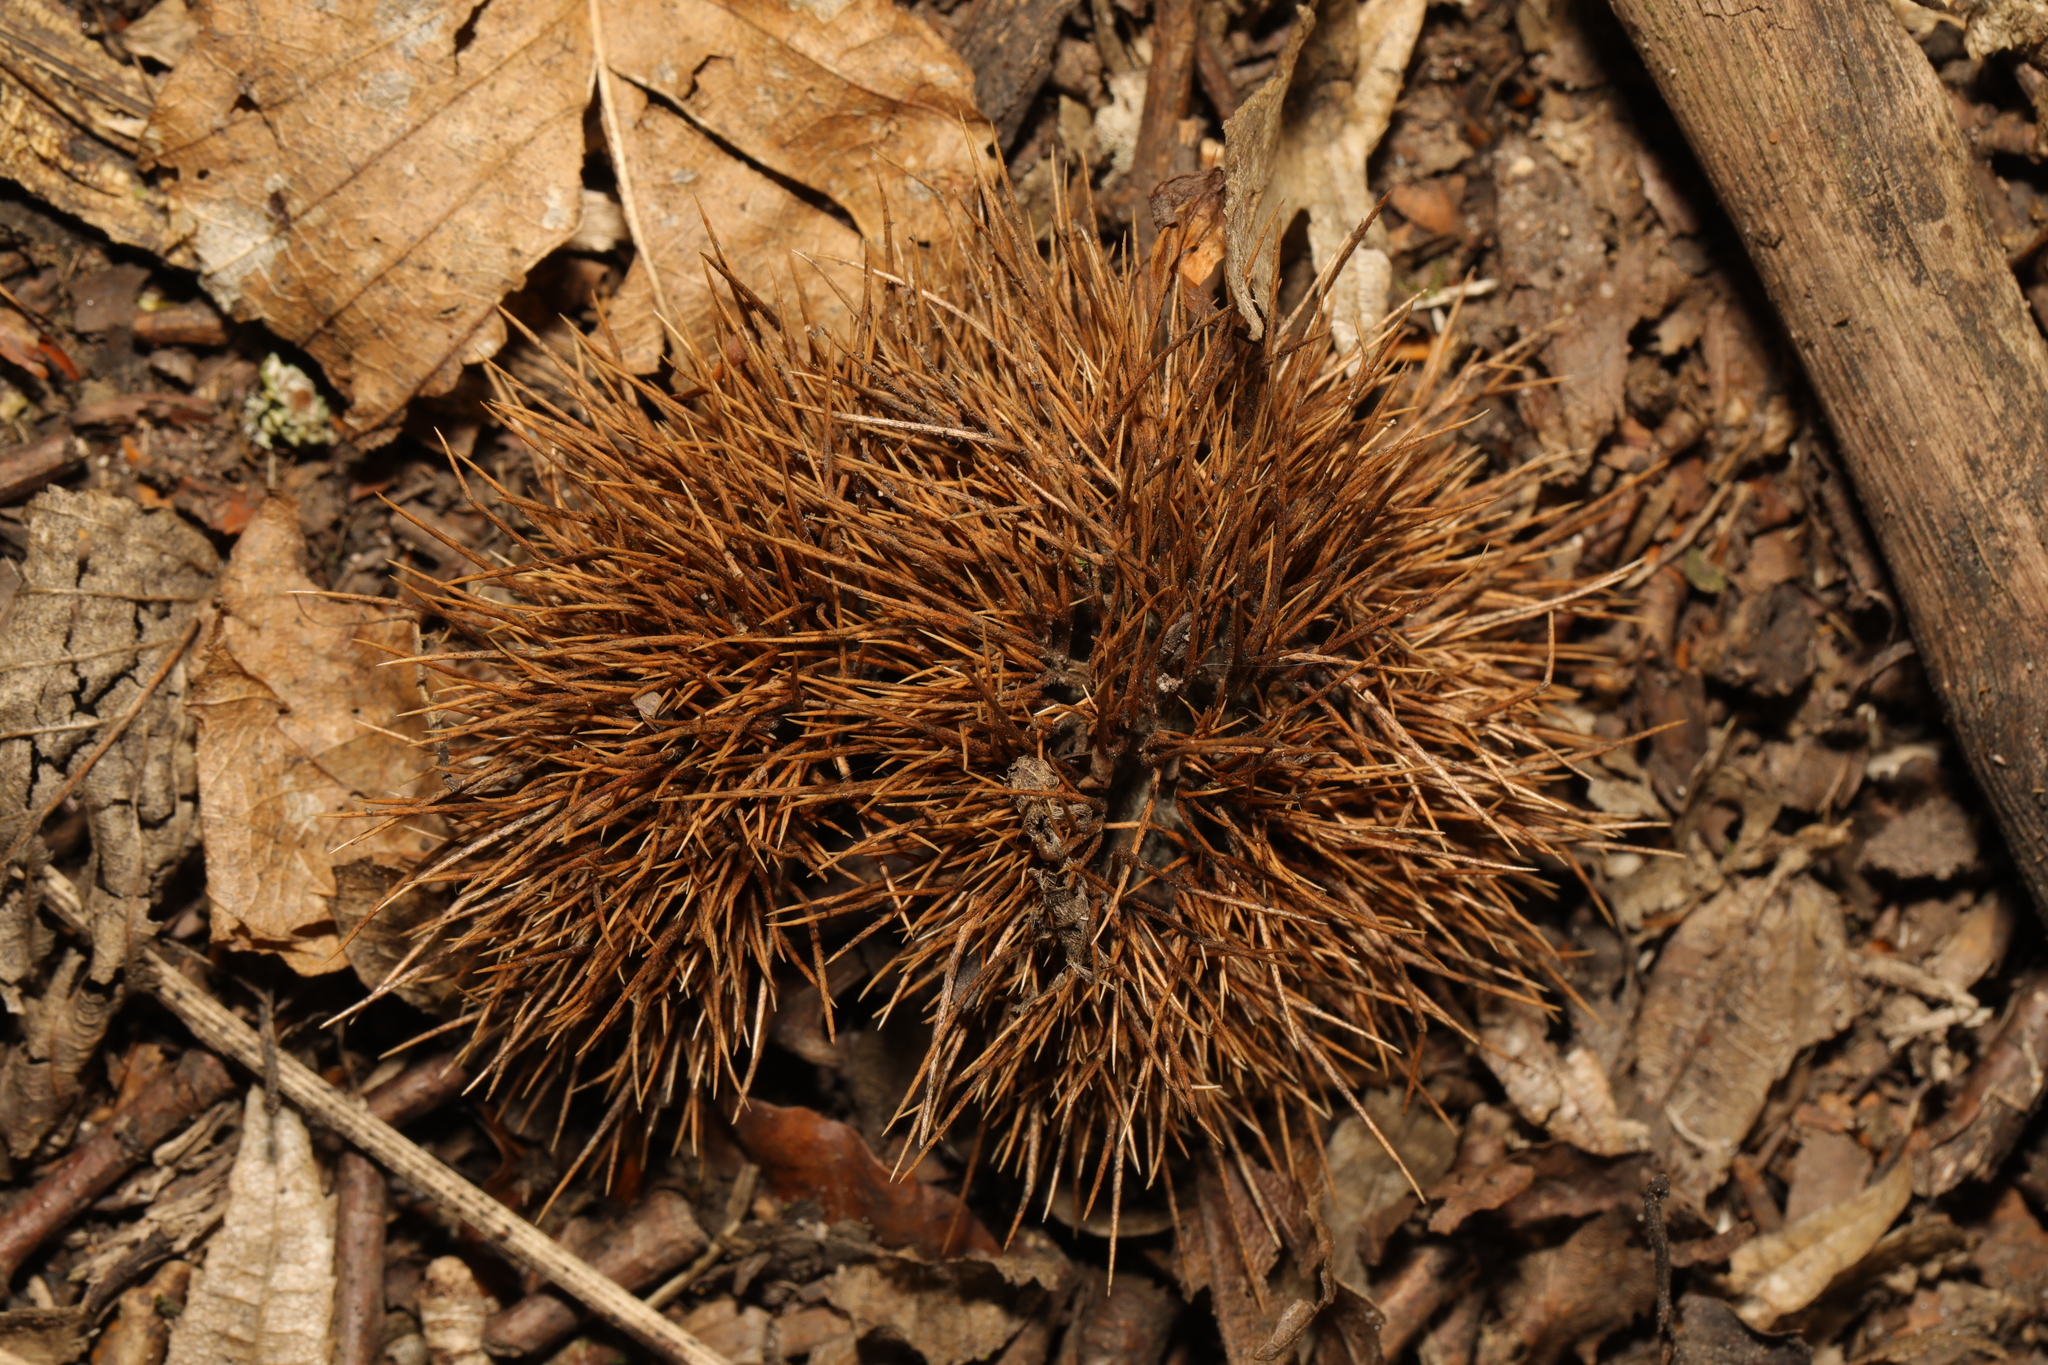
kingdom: Plantae
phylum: Tracheophyta
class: Magnoliopsida
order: Fagales
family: Fagaceae
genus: Castanea
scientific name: Castanea sativa
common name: Sweet chestnut
